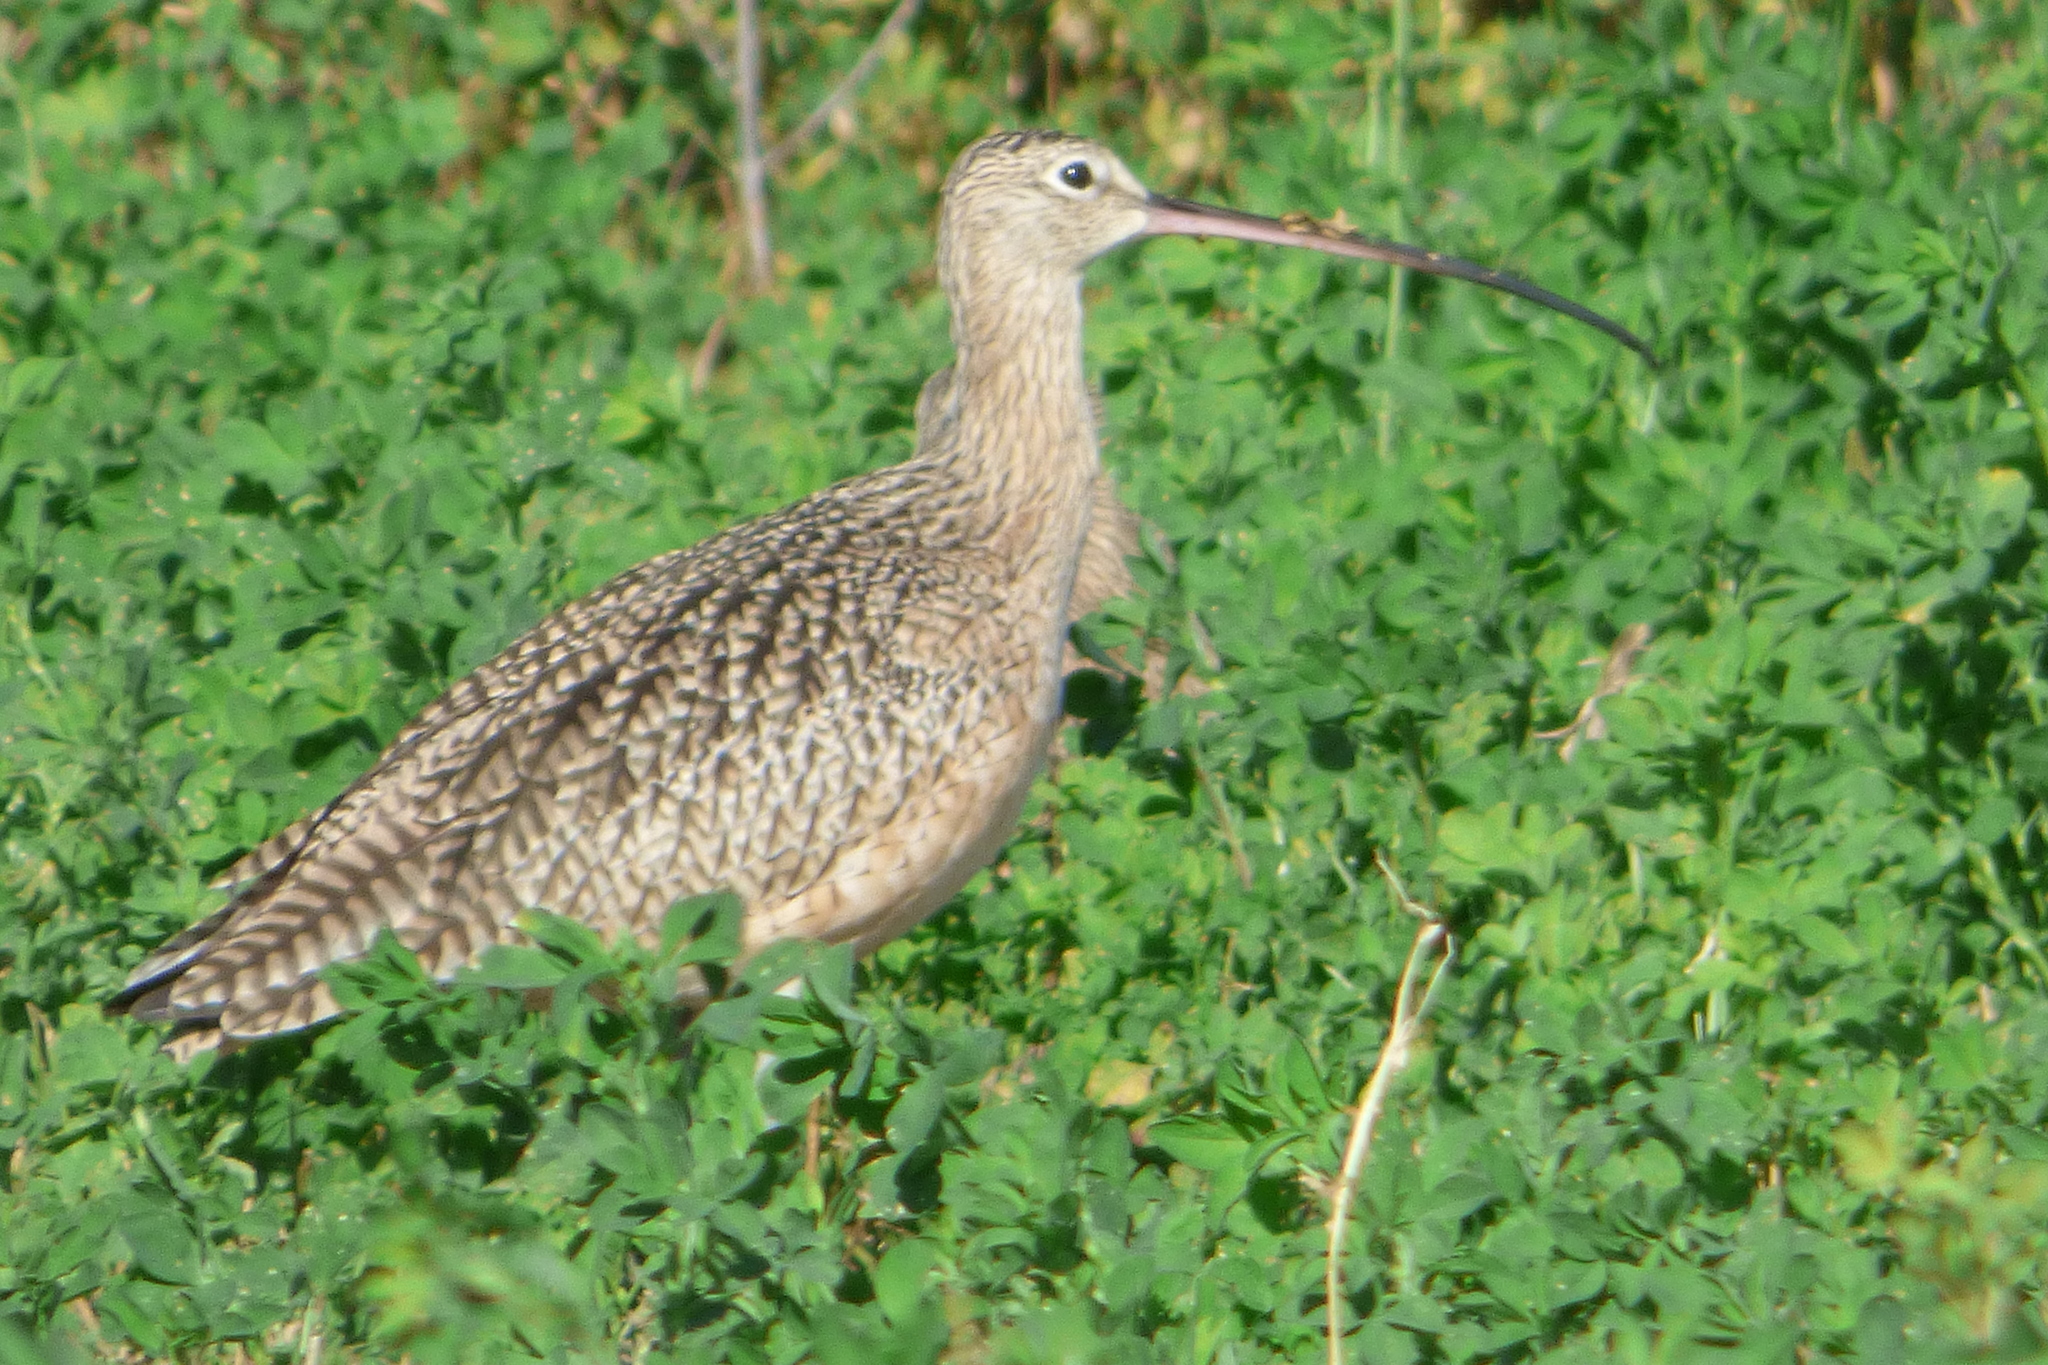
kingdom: Animalia
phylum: Chordata
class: Aves
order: Charadriiformes
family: Scolopacidae
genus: Numenius
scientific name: Numenius americanus
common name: Long-billed curlew
